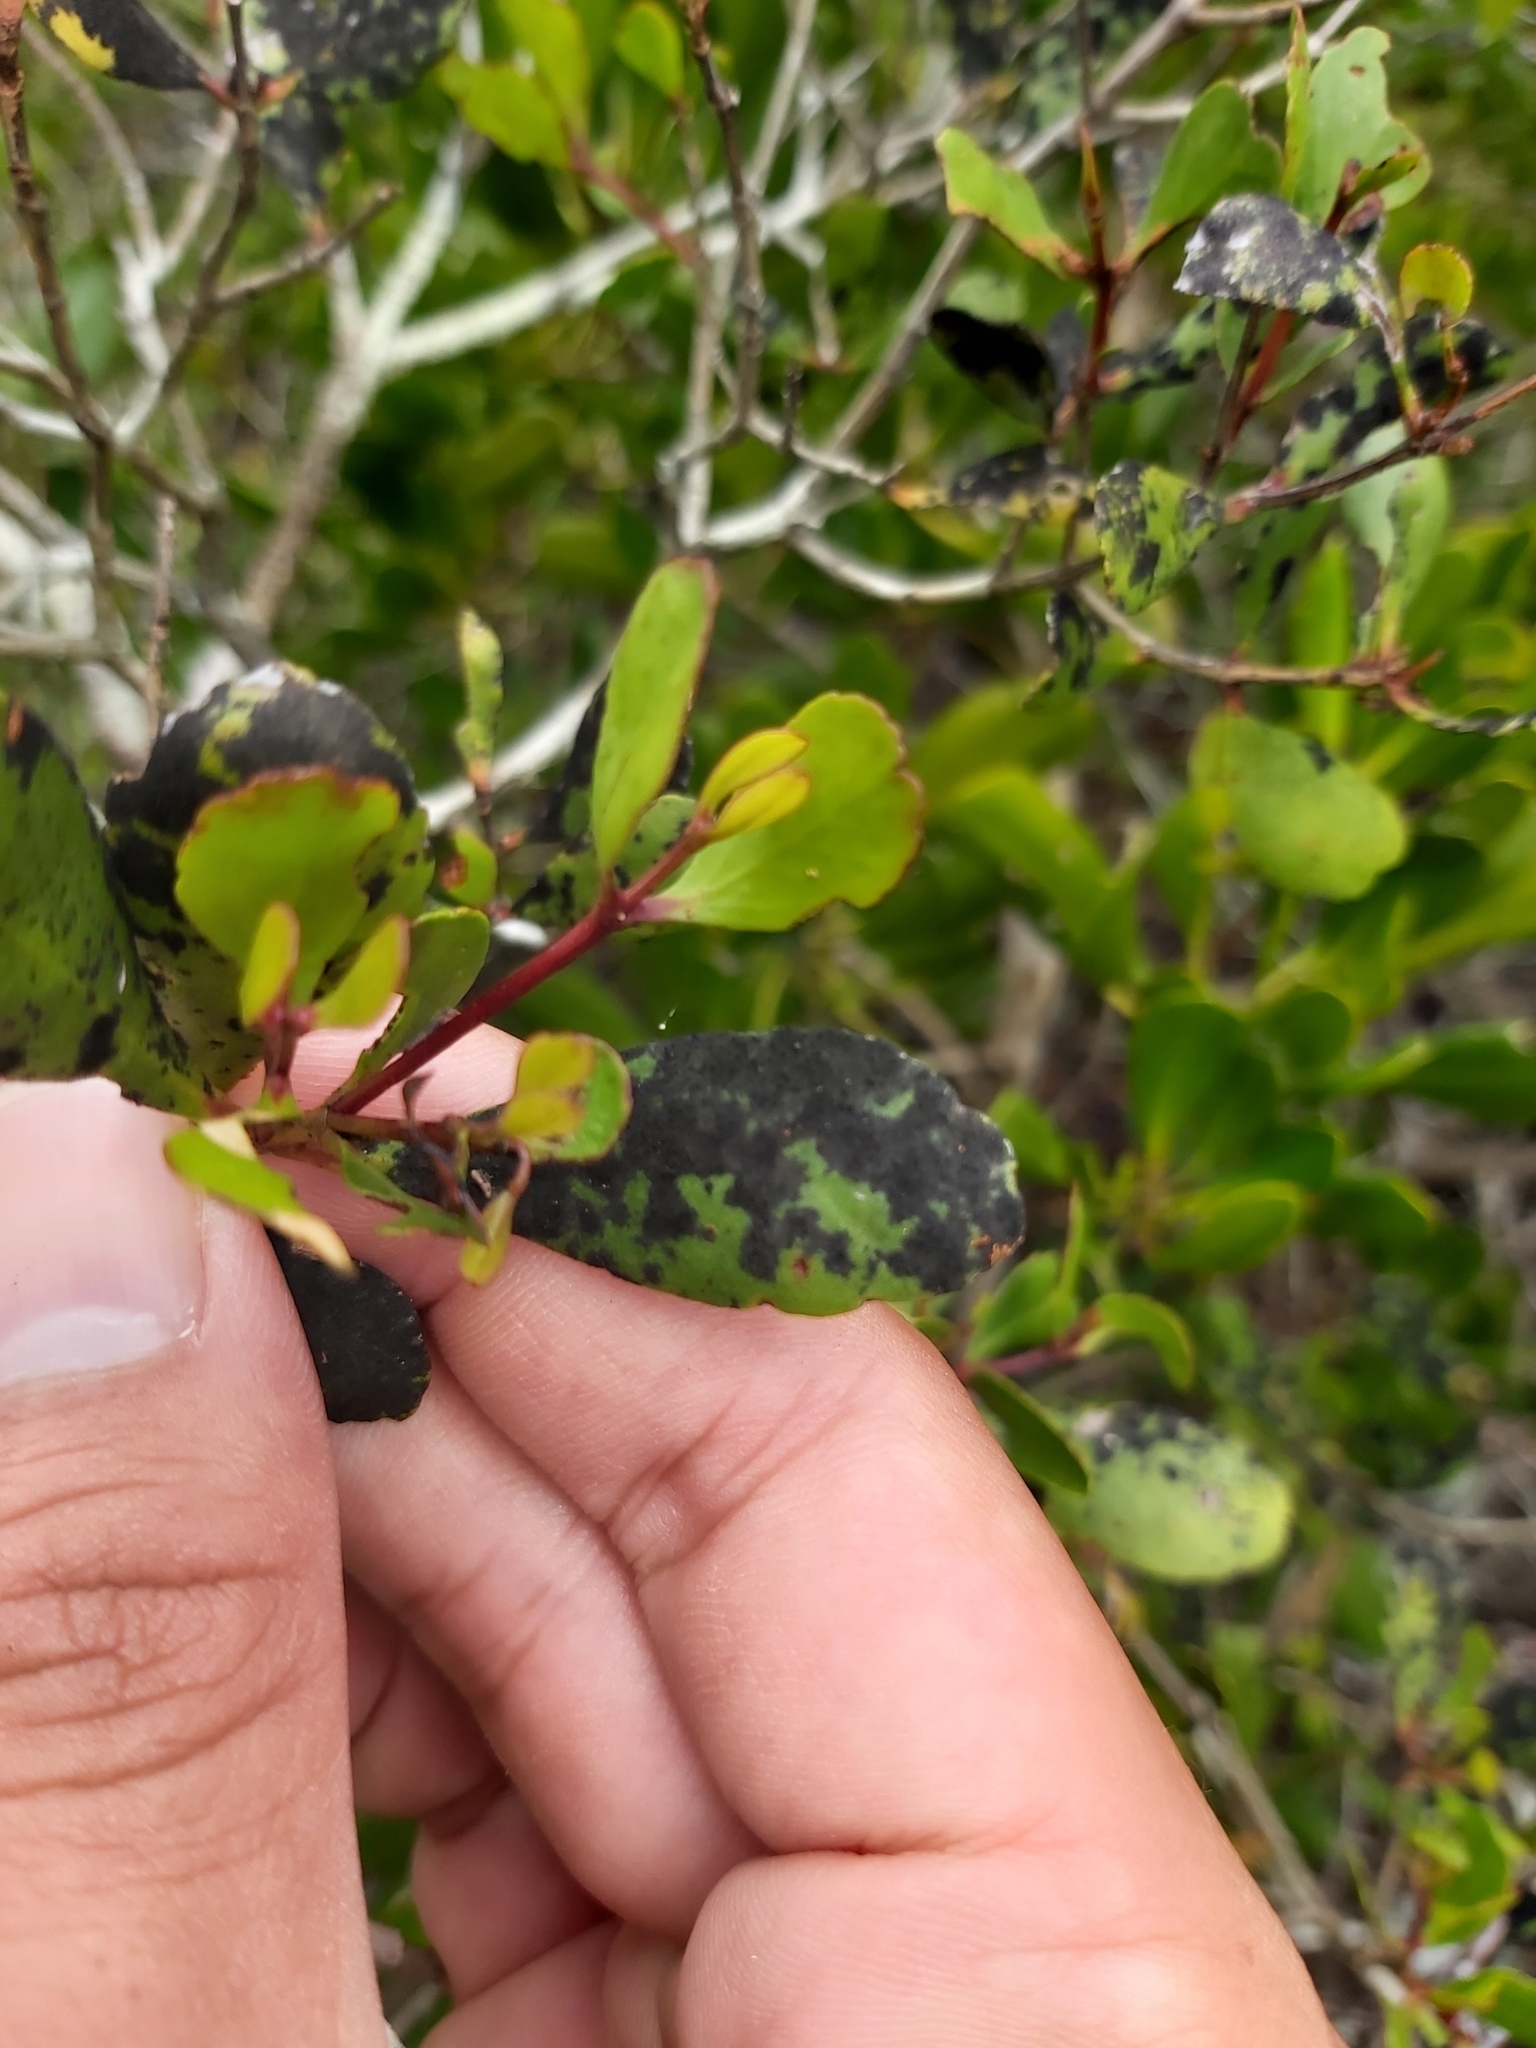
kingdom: Plantae
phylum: Tracheophyta
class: Magnoliopsida
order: Myrtales
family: Myrtaceae
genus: Osbornia
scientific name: Osbornia octodonta
